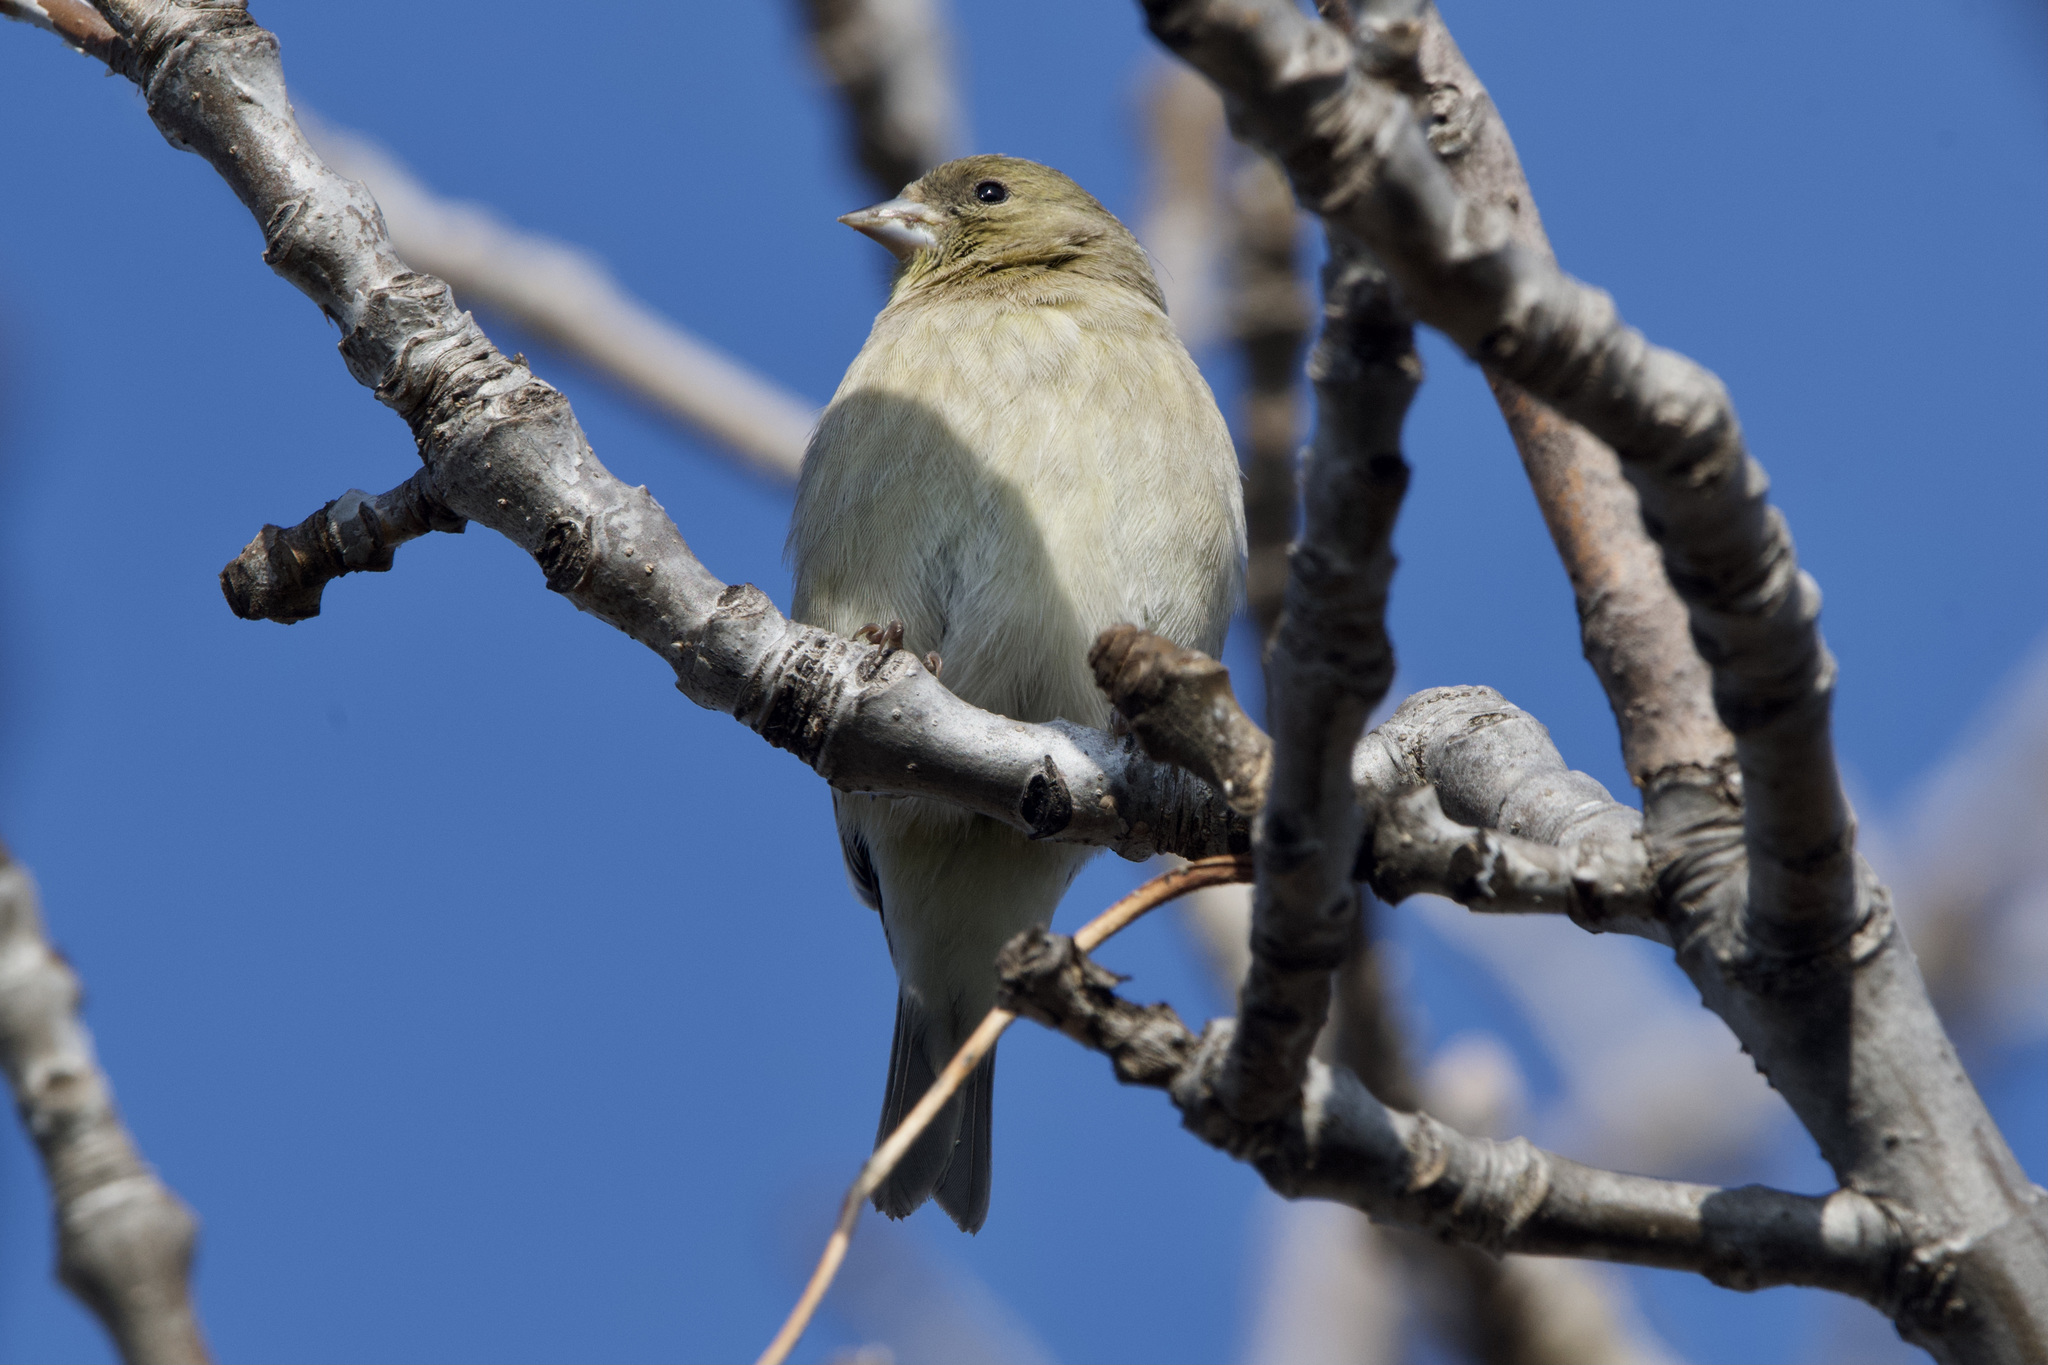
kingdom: Animalia
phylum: Chordata
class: Aves
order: Passeriformes
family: Fringillidae
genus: Spinus
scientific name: Spinus psaltria
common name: Lesser goldfinch
